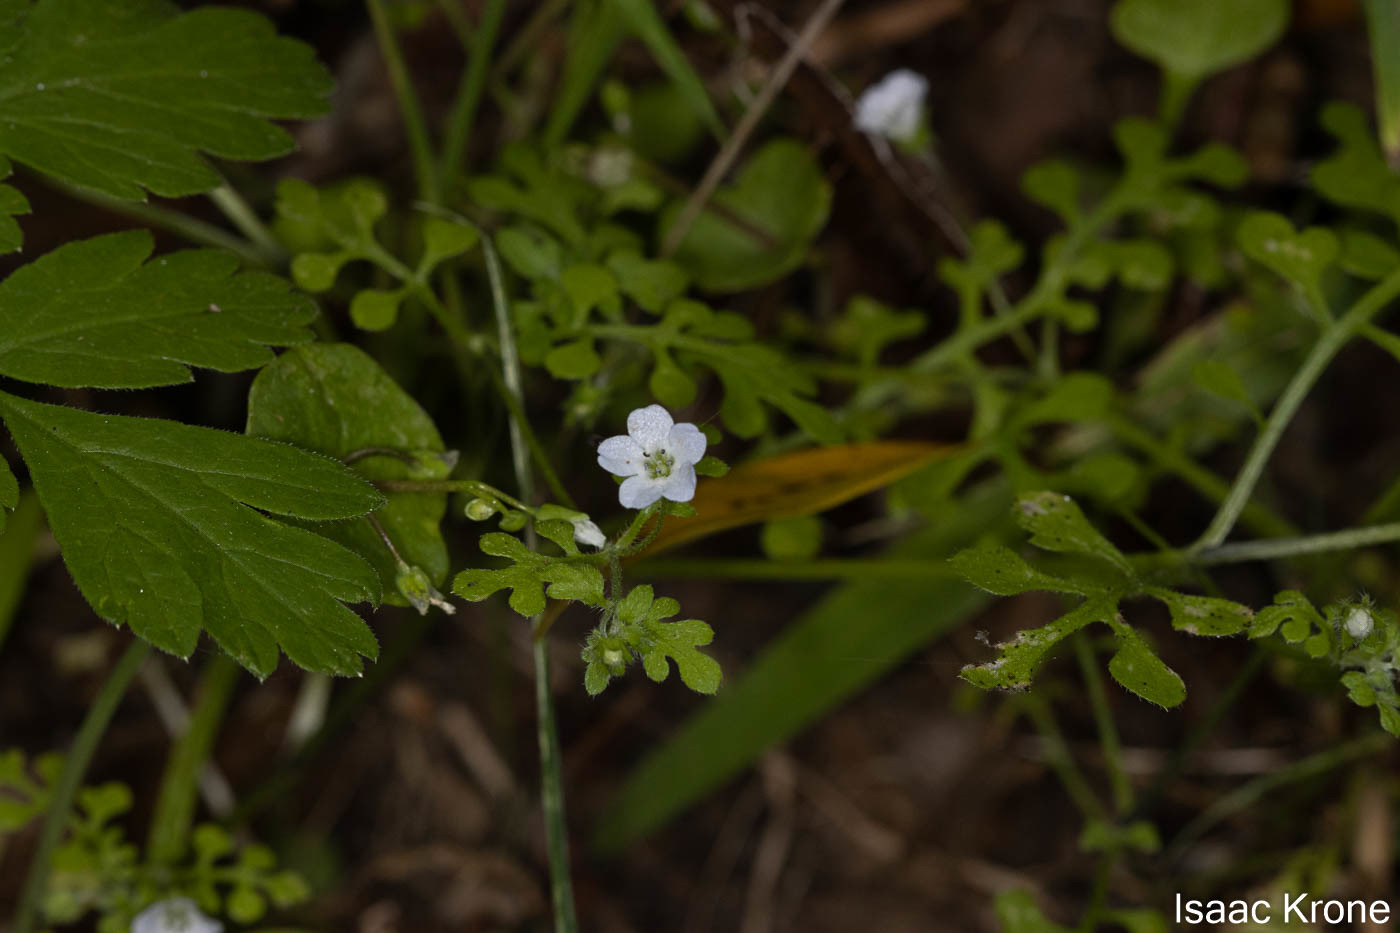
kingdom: Plantae
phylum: Tracheophyta
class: Magnoliopsida
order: Boraginales
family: Hydrophyllaceae
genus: Nemophila
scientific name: Nemophila heterophylla
